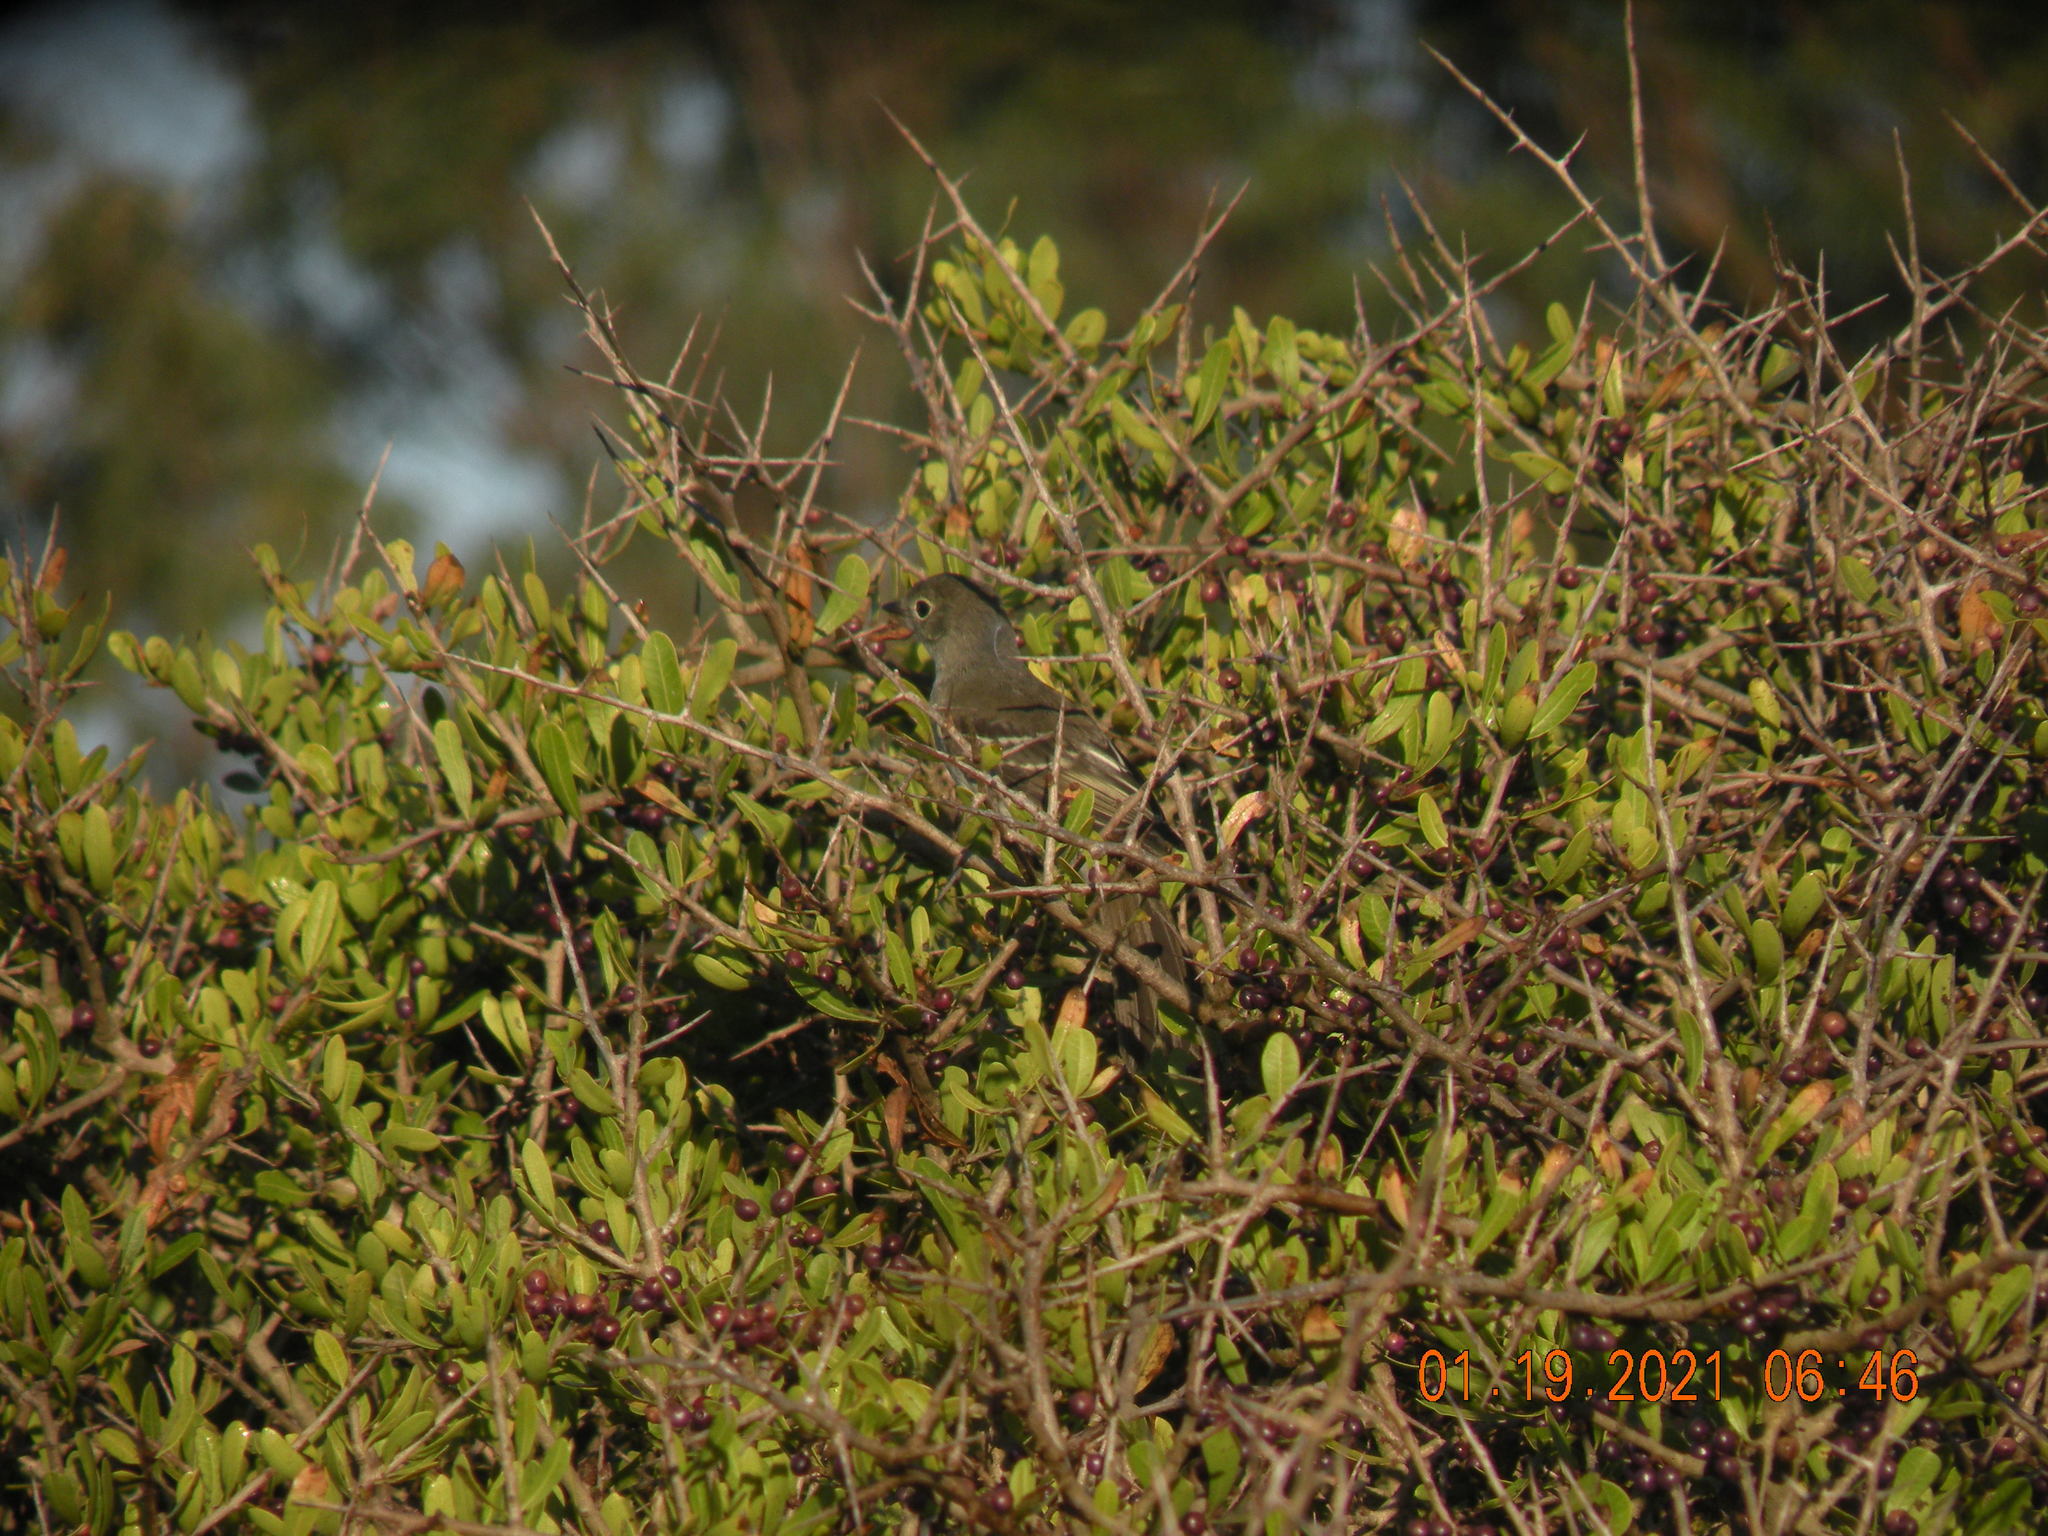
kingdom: Animalia
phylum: Chordata
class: Aves
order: Passeriformes
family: Tyrannidae
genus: Elaenia
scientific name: Elaenia parvirostris
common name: Small-billed elaenia
